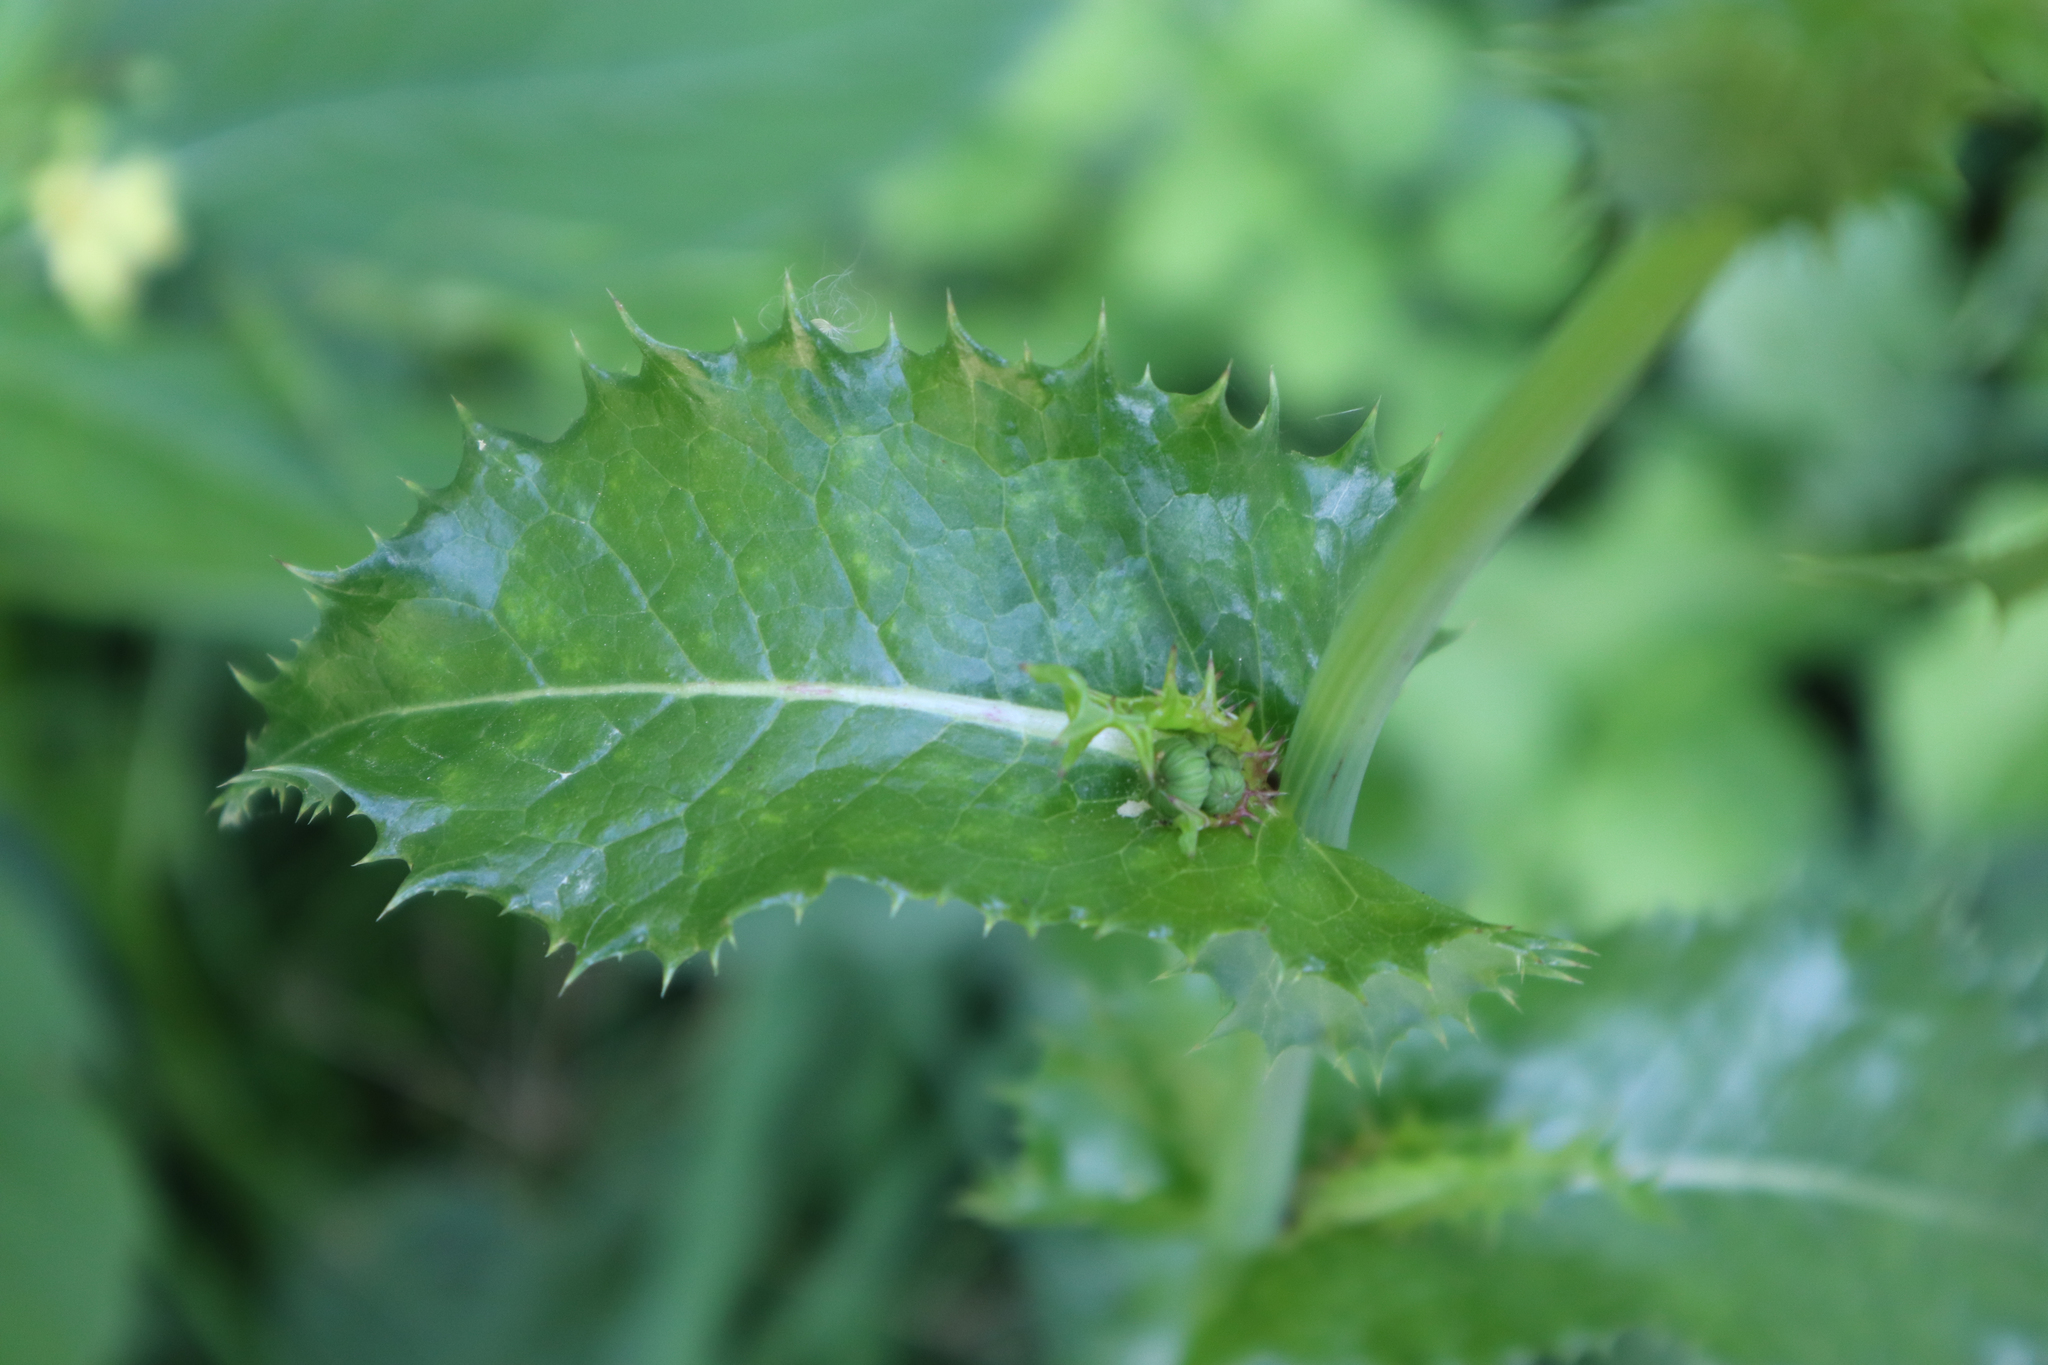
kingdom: Plantae
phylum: Tracheophyta
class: Magnoliopsida
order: Asterales
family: Asteraceae
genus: Sonchus
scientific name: Sonchus asper
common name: Prickly sow-thistle
